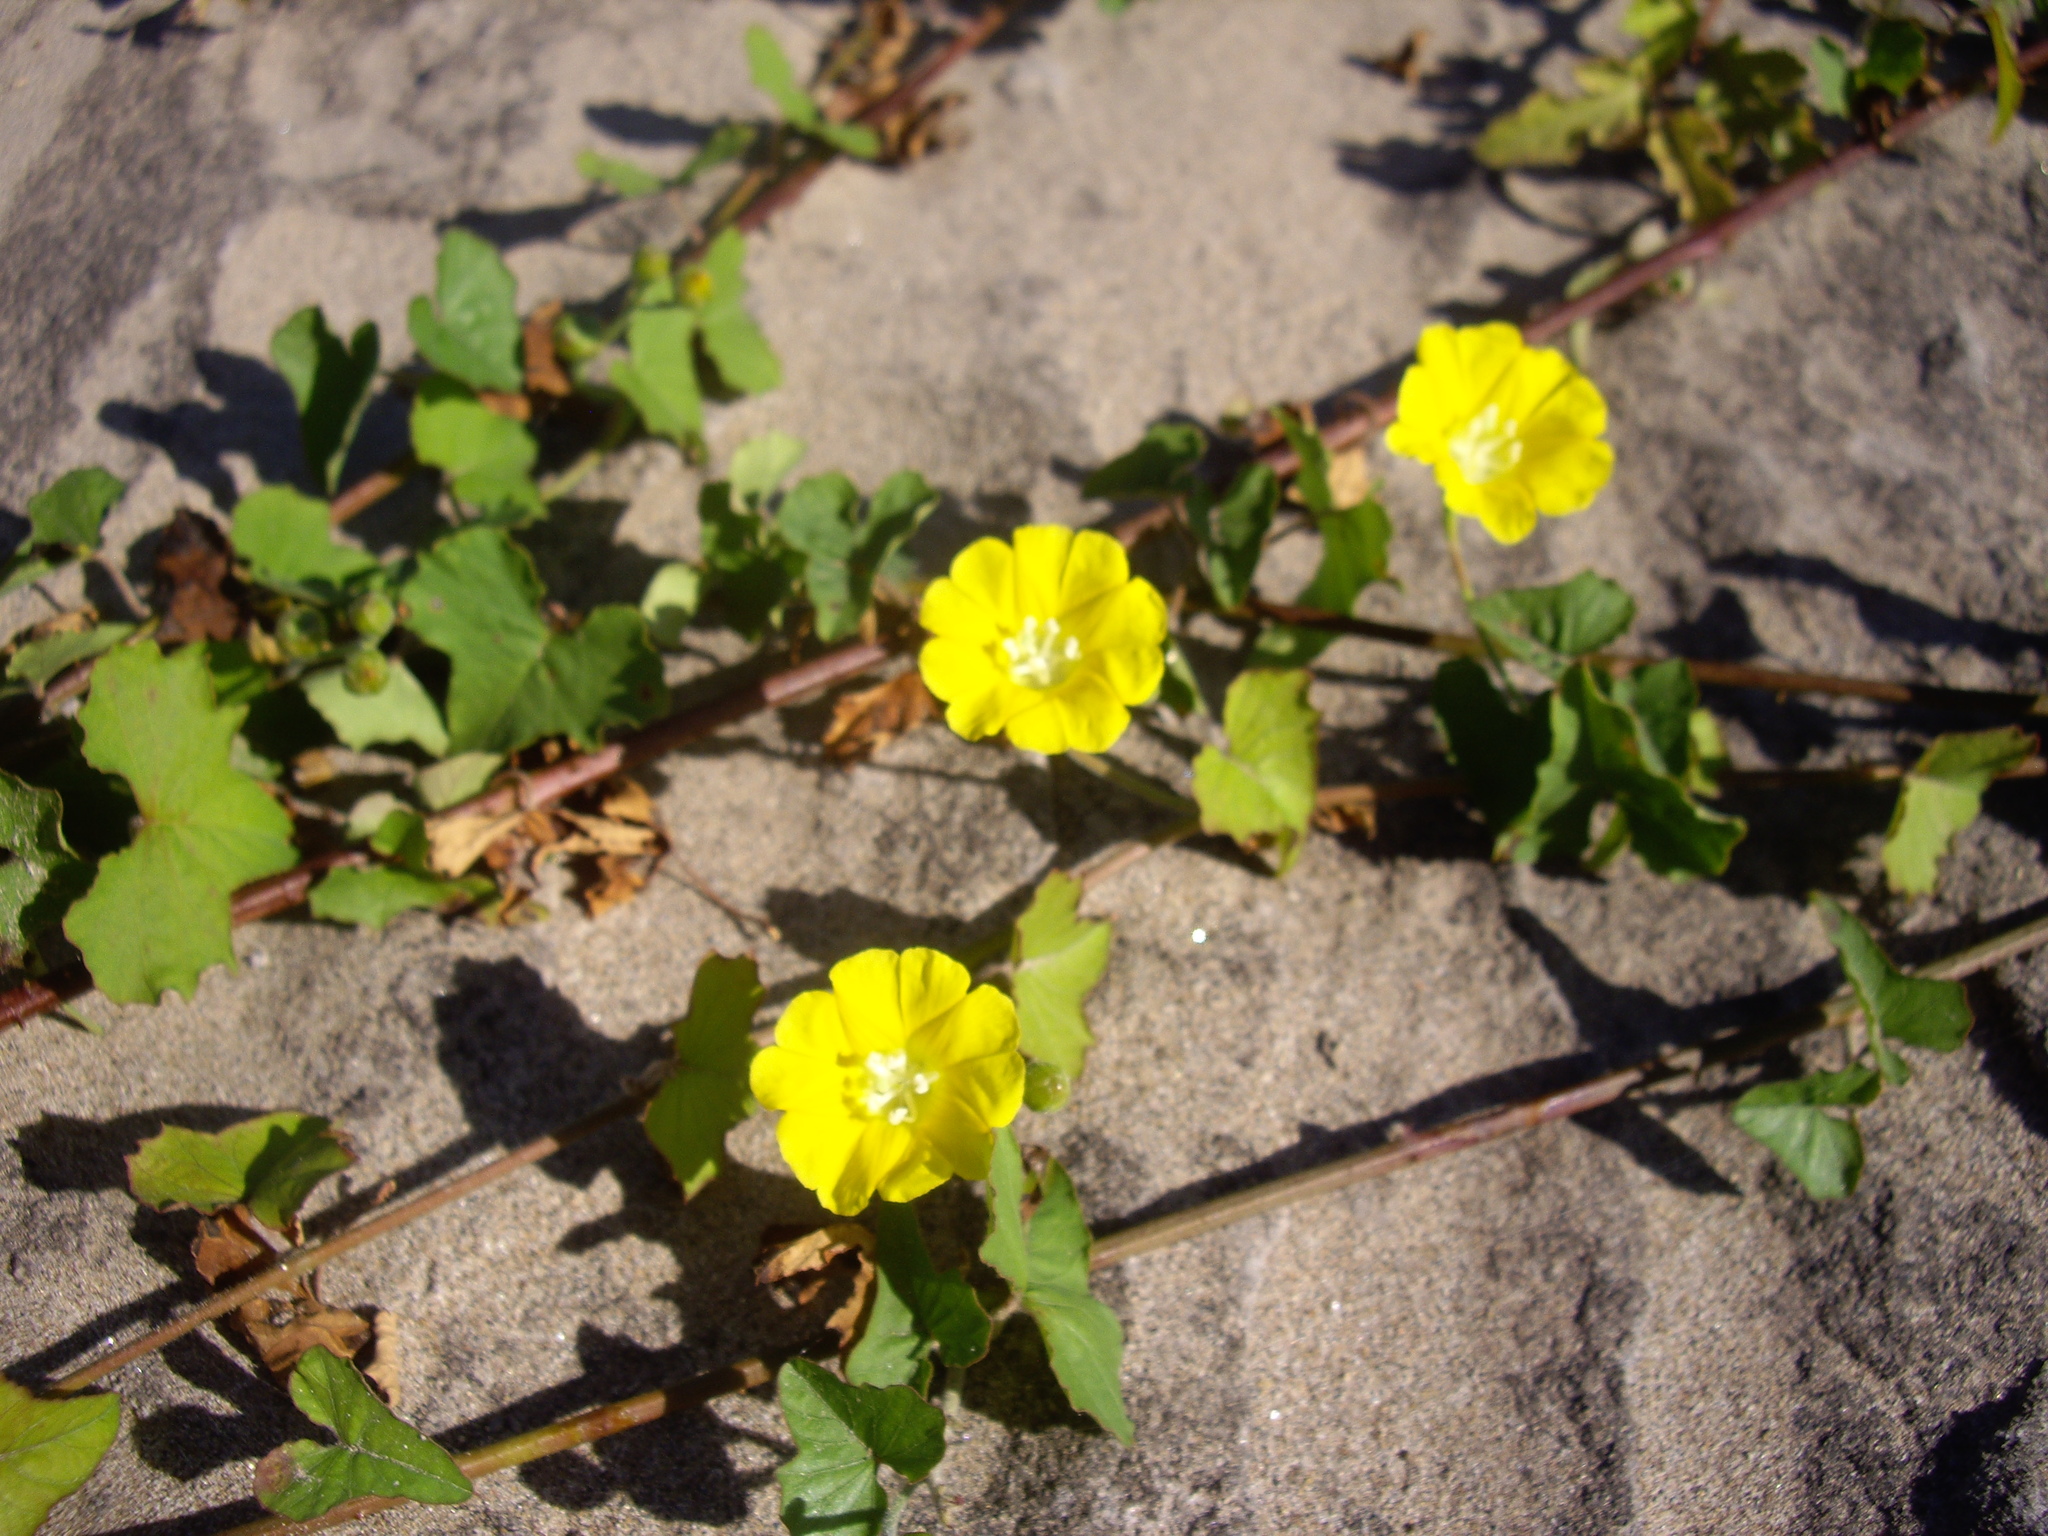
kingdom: Plantae
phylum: Tracheophyta
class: Magnoliopsida
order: Solanales
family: Convolvulaceae
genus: Merremia
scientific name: Merremia hederacea
